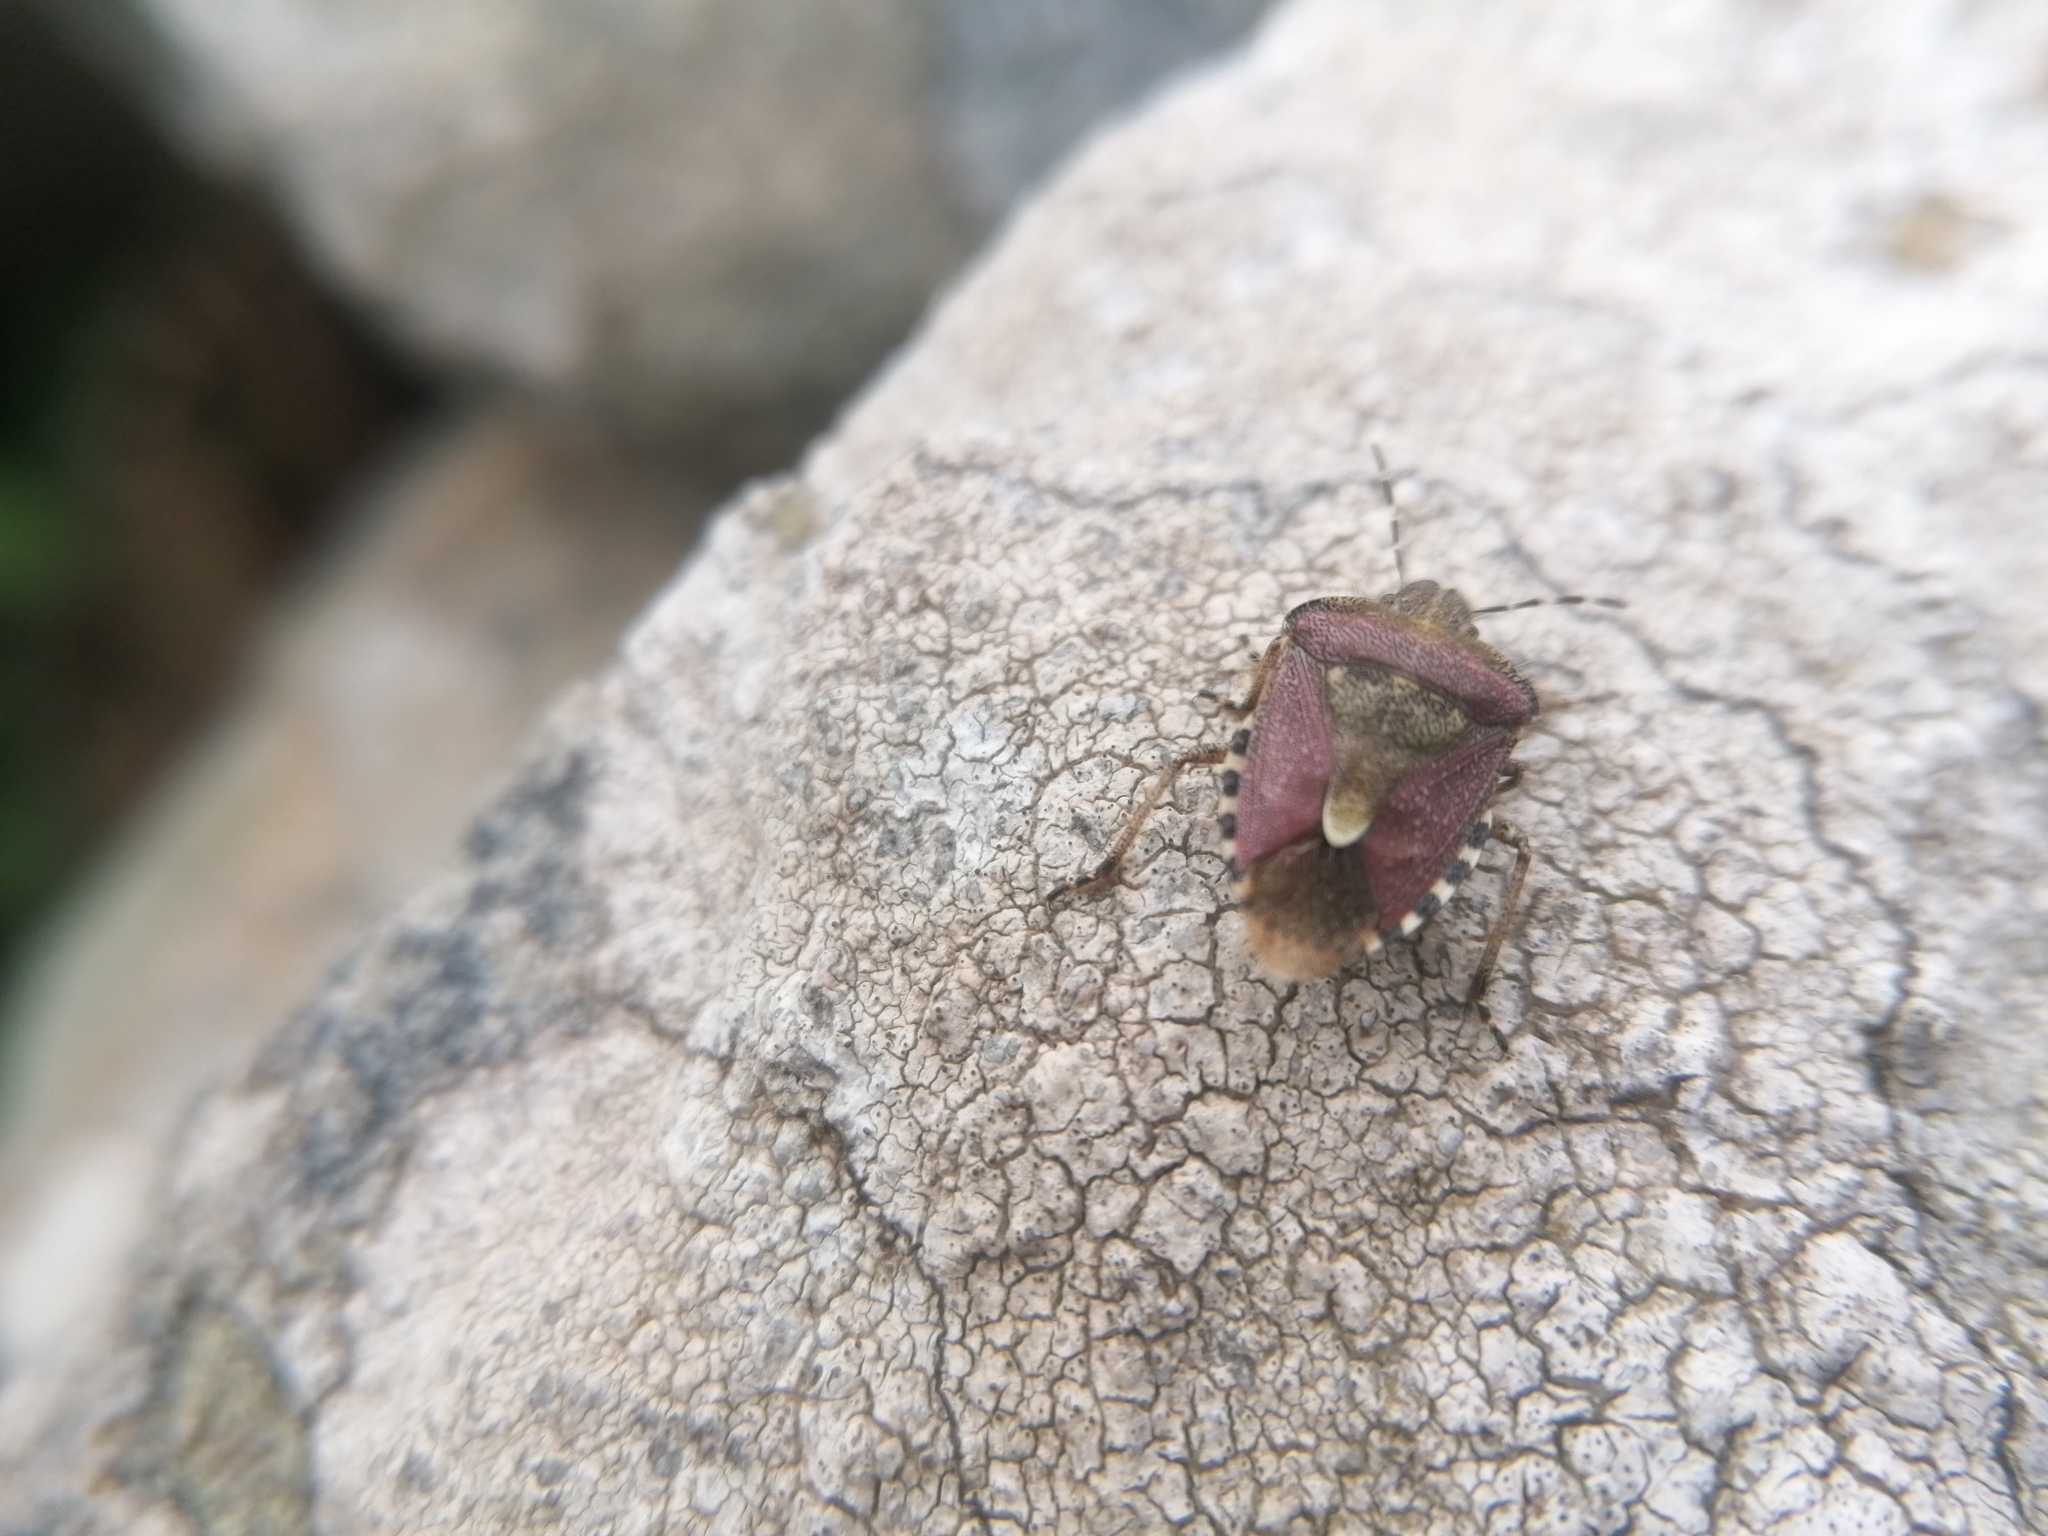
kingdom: Animalia
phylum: Arthropoda
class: Insecta
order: Hemiptera
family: Pentatomidae
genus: Dolycoris
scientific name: Dolycoris baccarum
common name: Sloe bug
